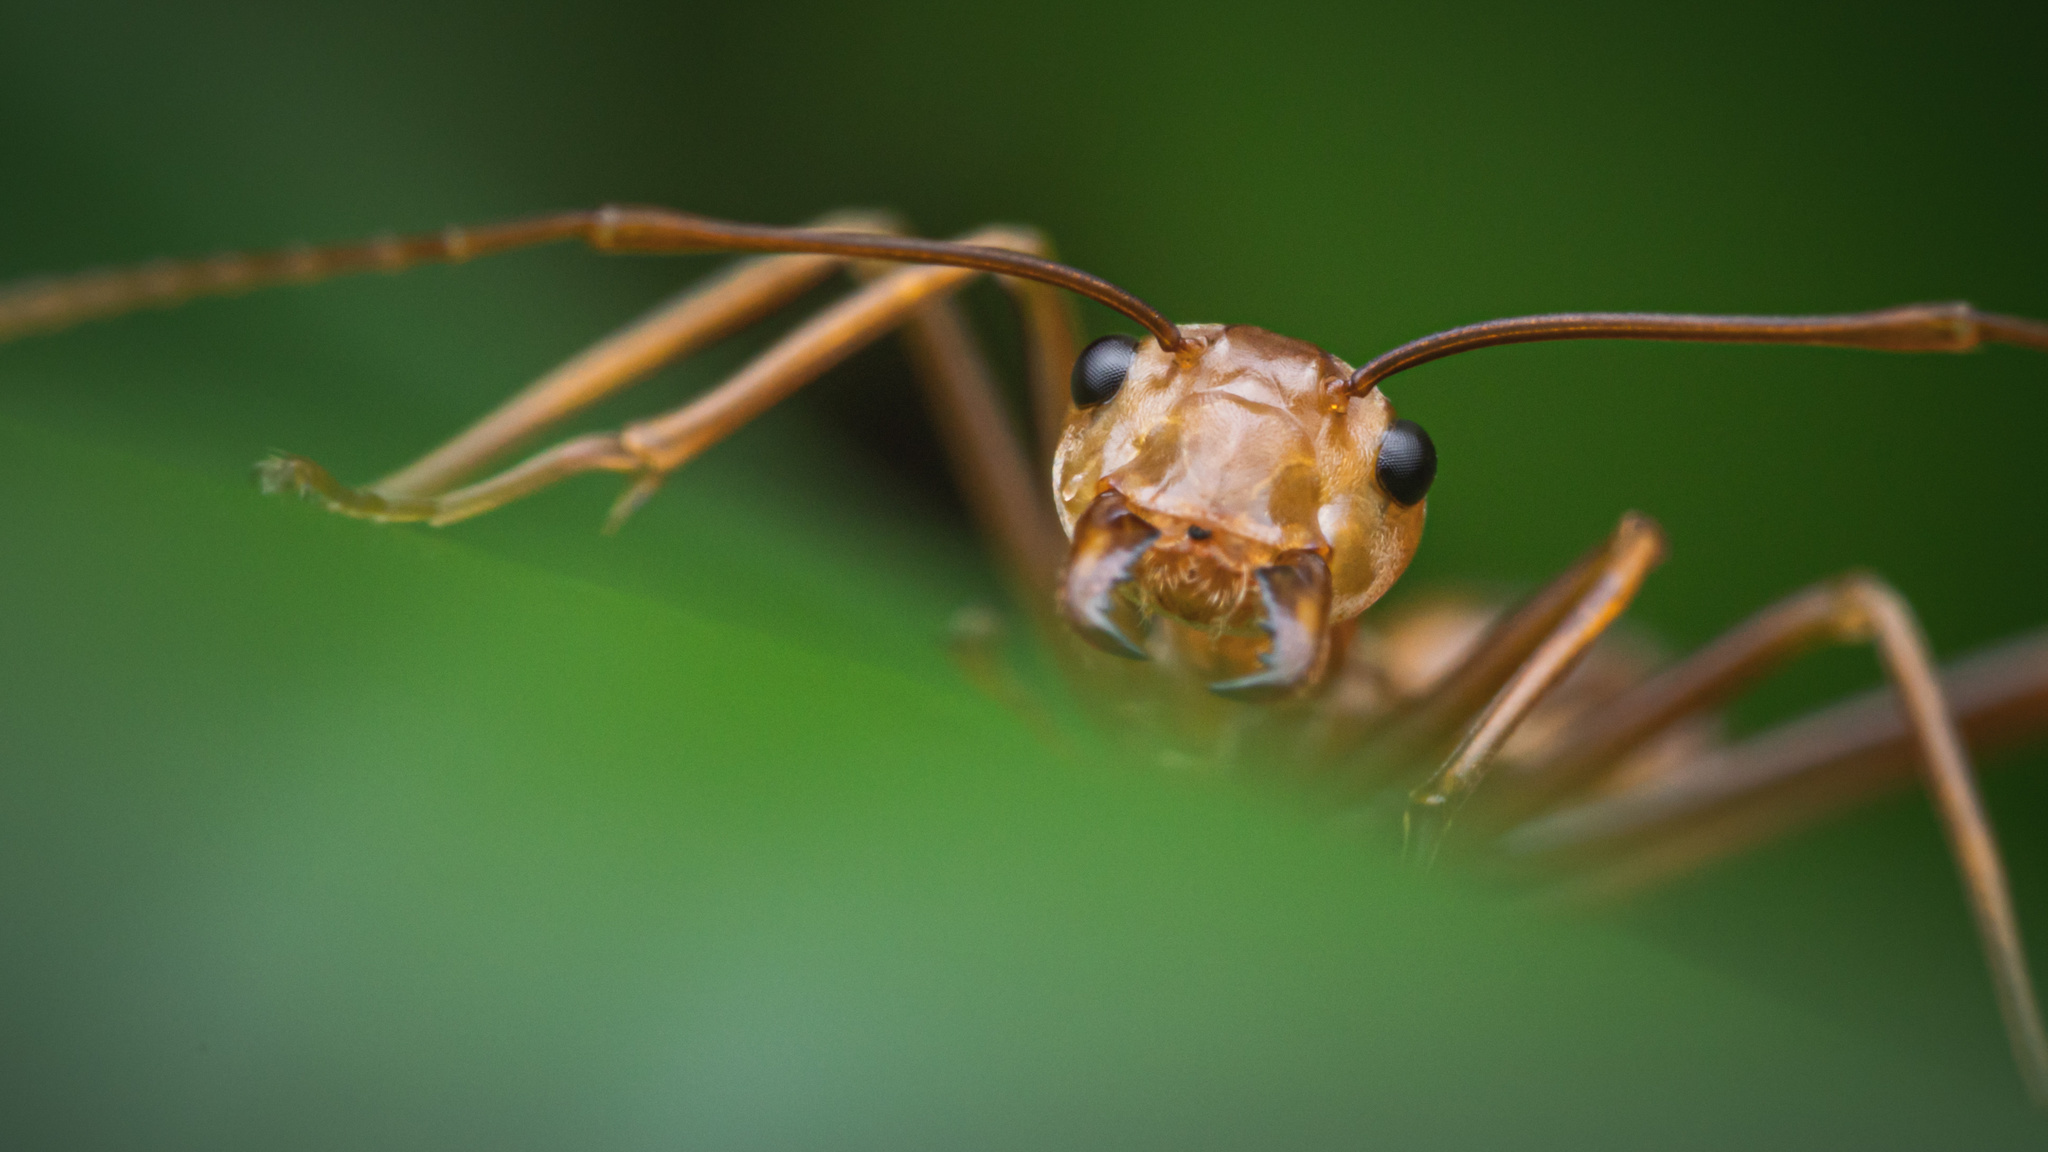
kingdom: Animalia
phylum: Arthropoda
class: Insecta
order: Hymenoptera
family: Formicidae
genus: Oecophylla
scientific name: Oecophylla smaragdina
